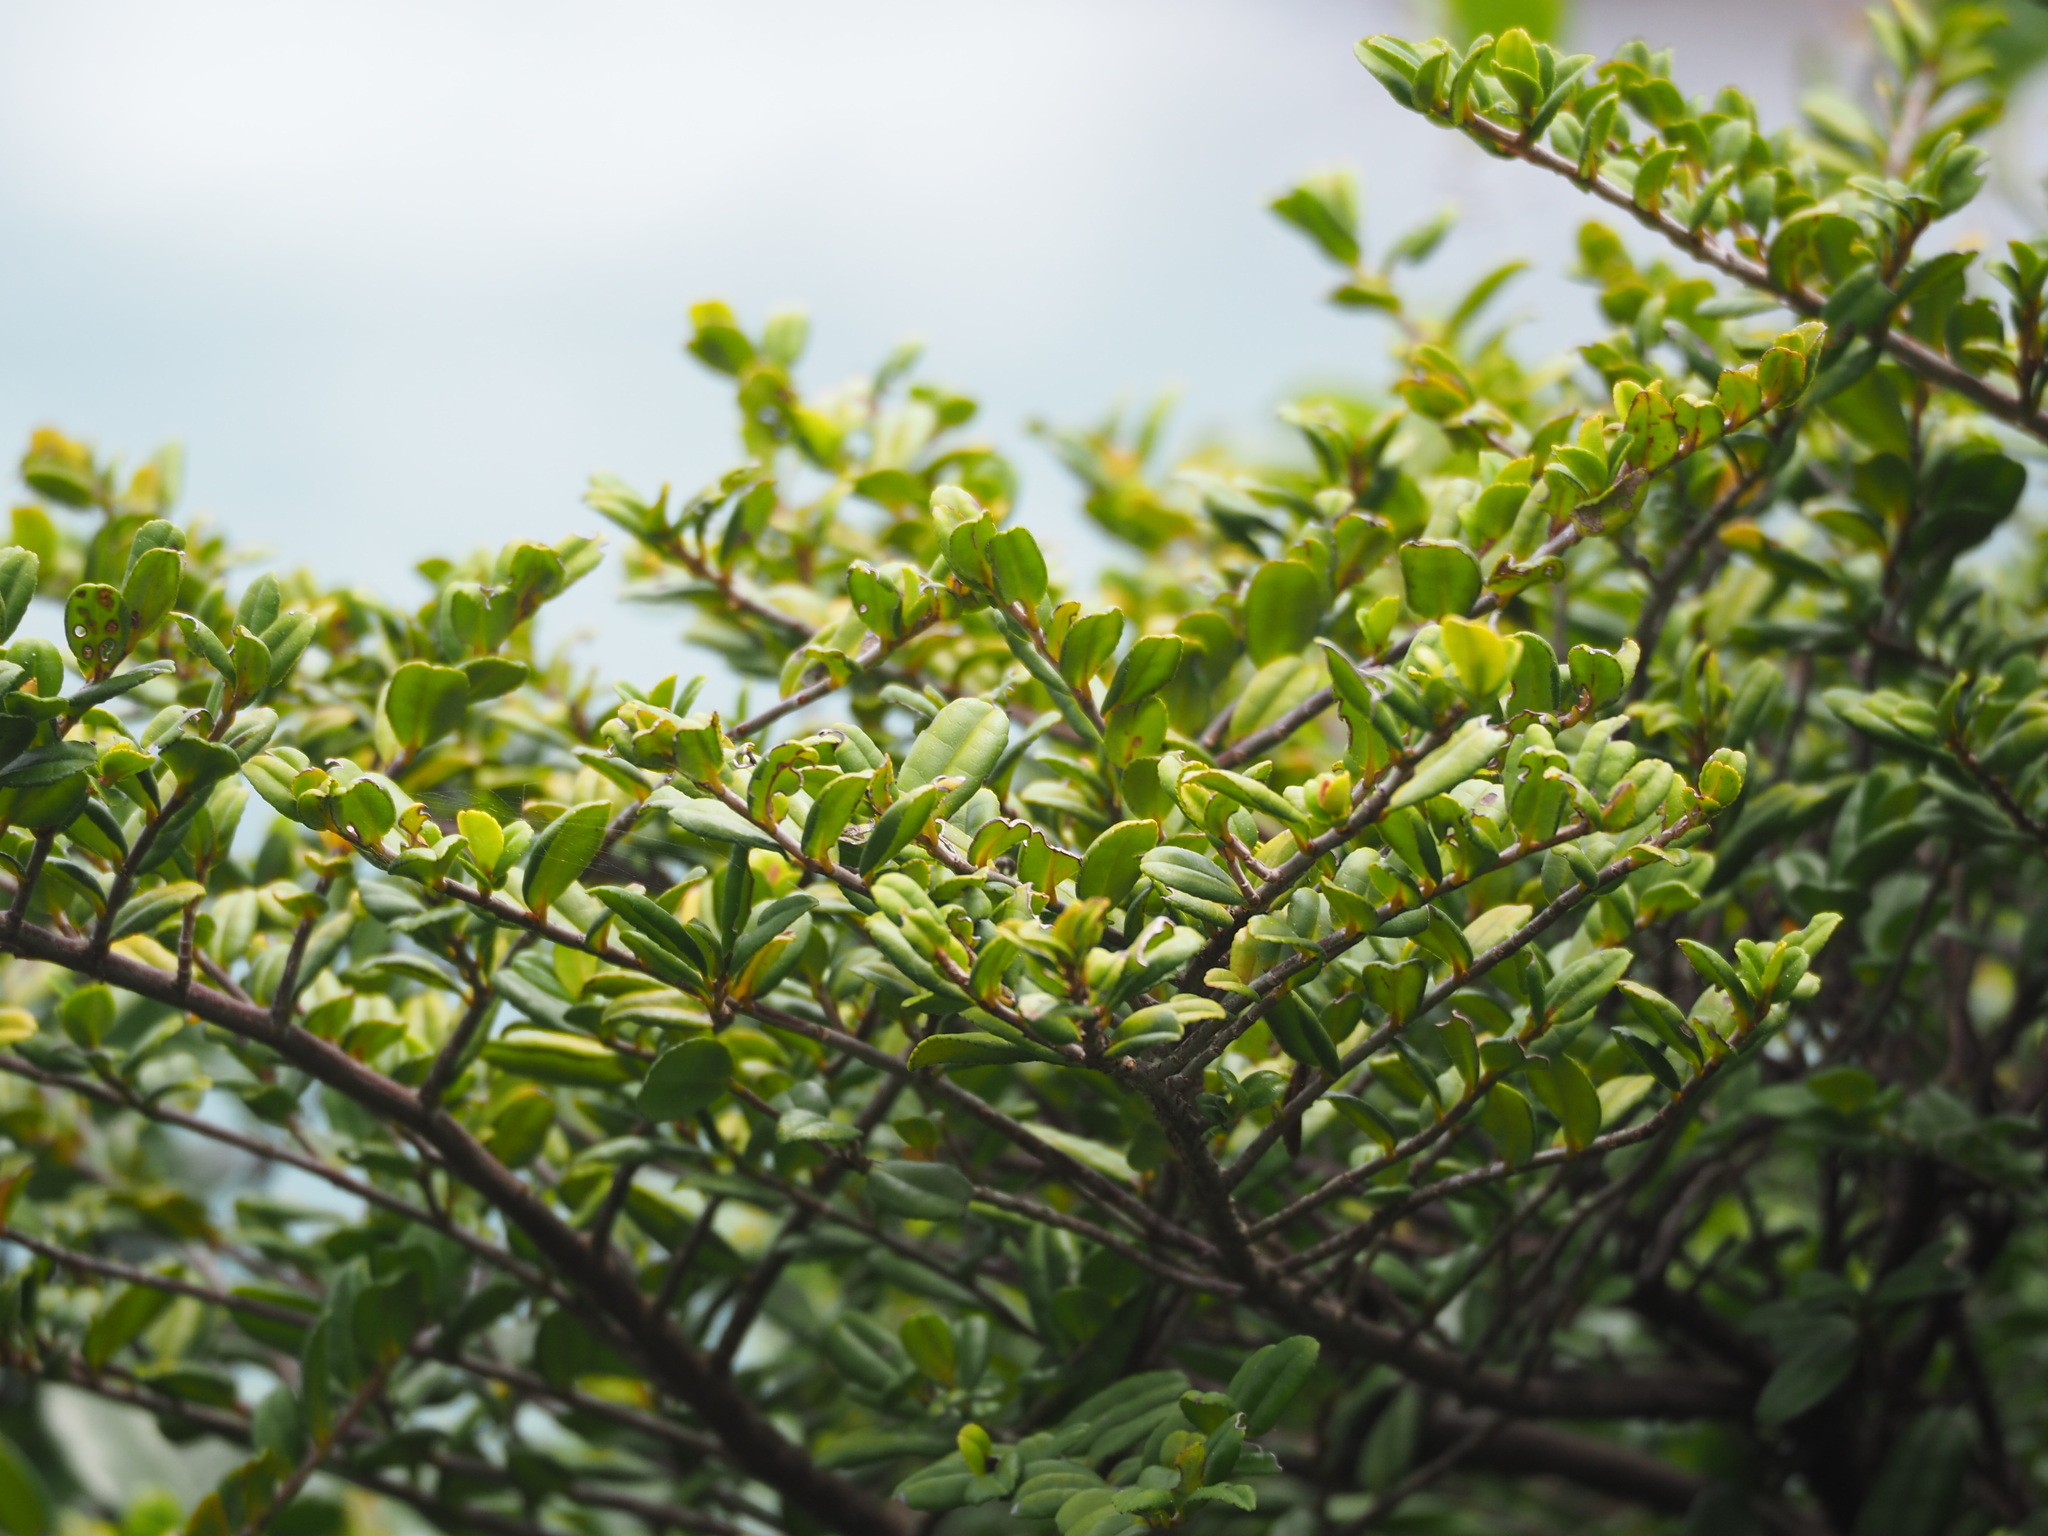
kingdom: Plantae
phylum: Tracheophyta
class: Magnoliopsida
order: Ericales
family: Pentaphylacaceae
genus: Eurya
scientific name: Eurya emarginata
